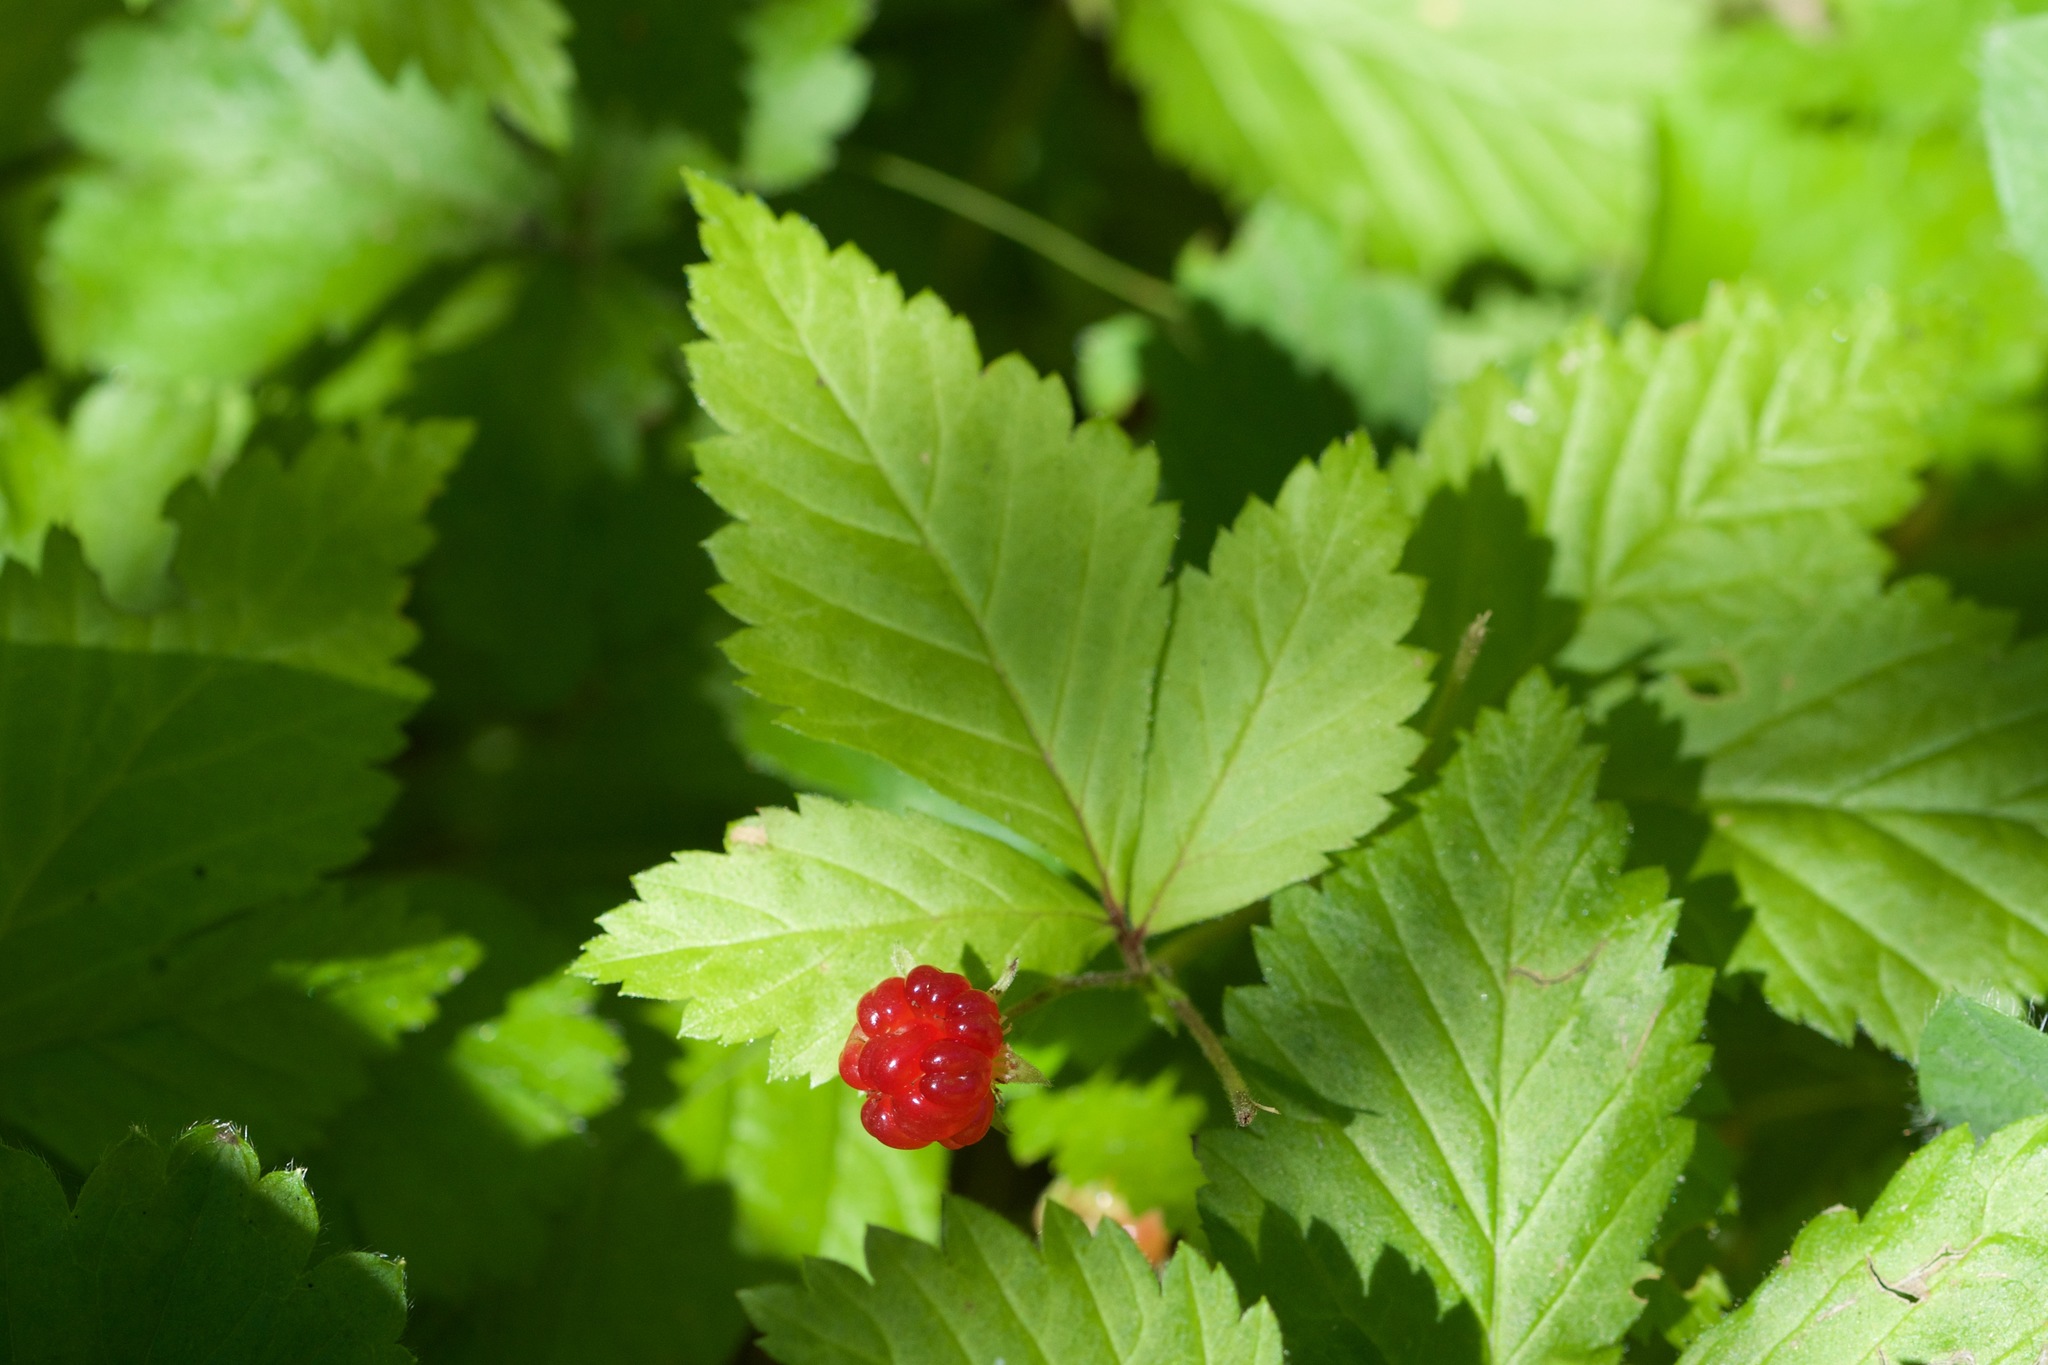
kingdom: Plantae
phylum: Tracheophyta
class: Magnoliopsida
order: Rosales
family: Rosaceae
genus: Rubus
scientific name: Rubus pubescens
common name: Dwarf raspberry
